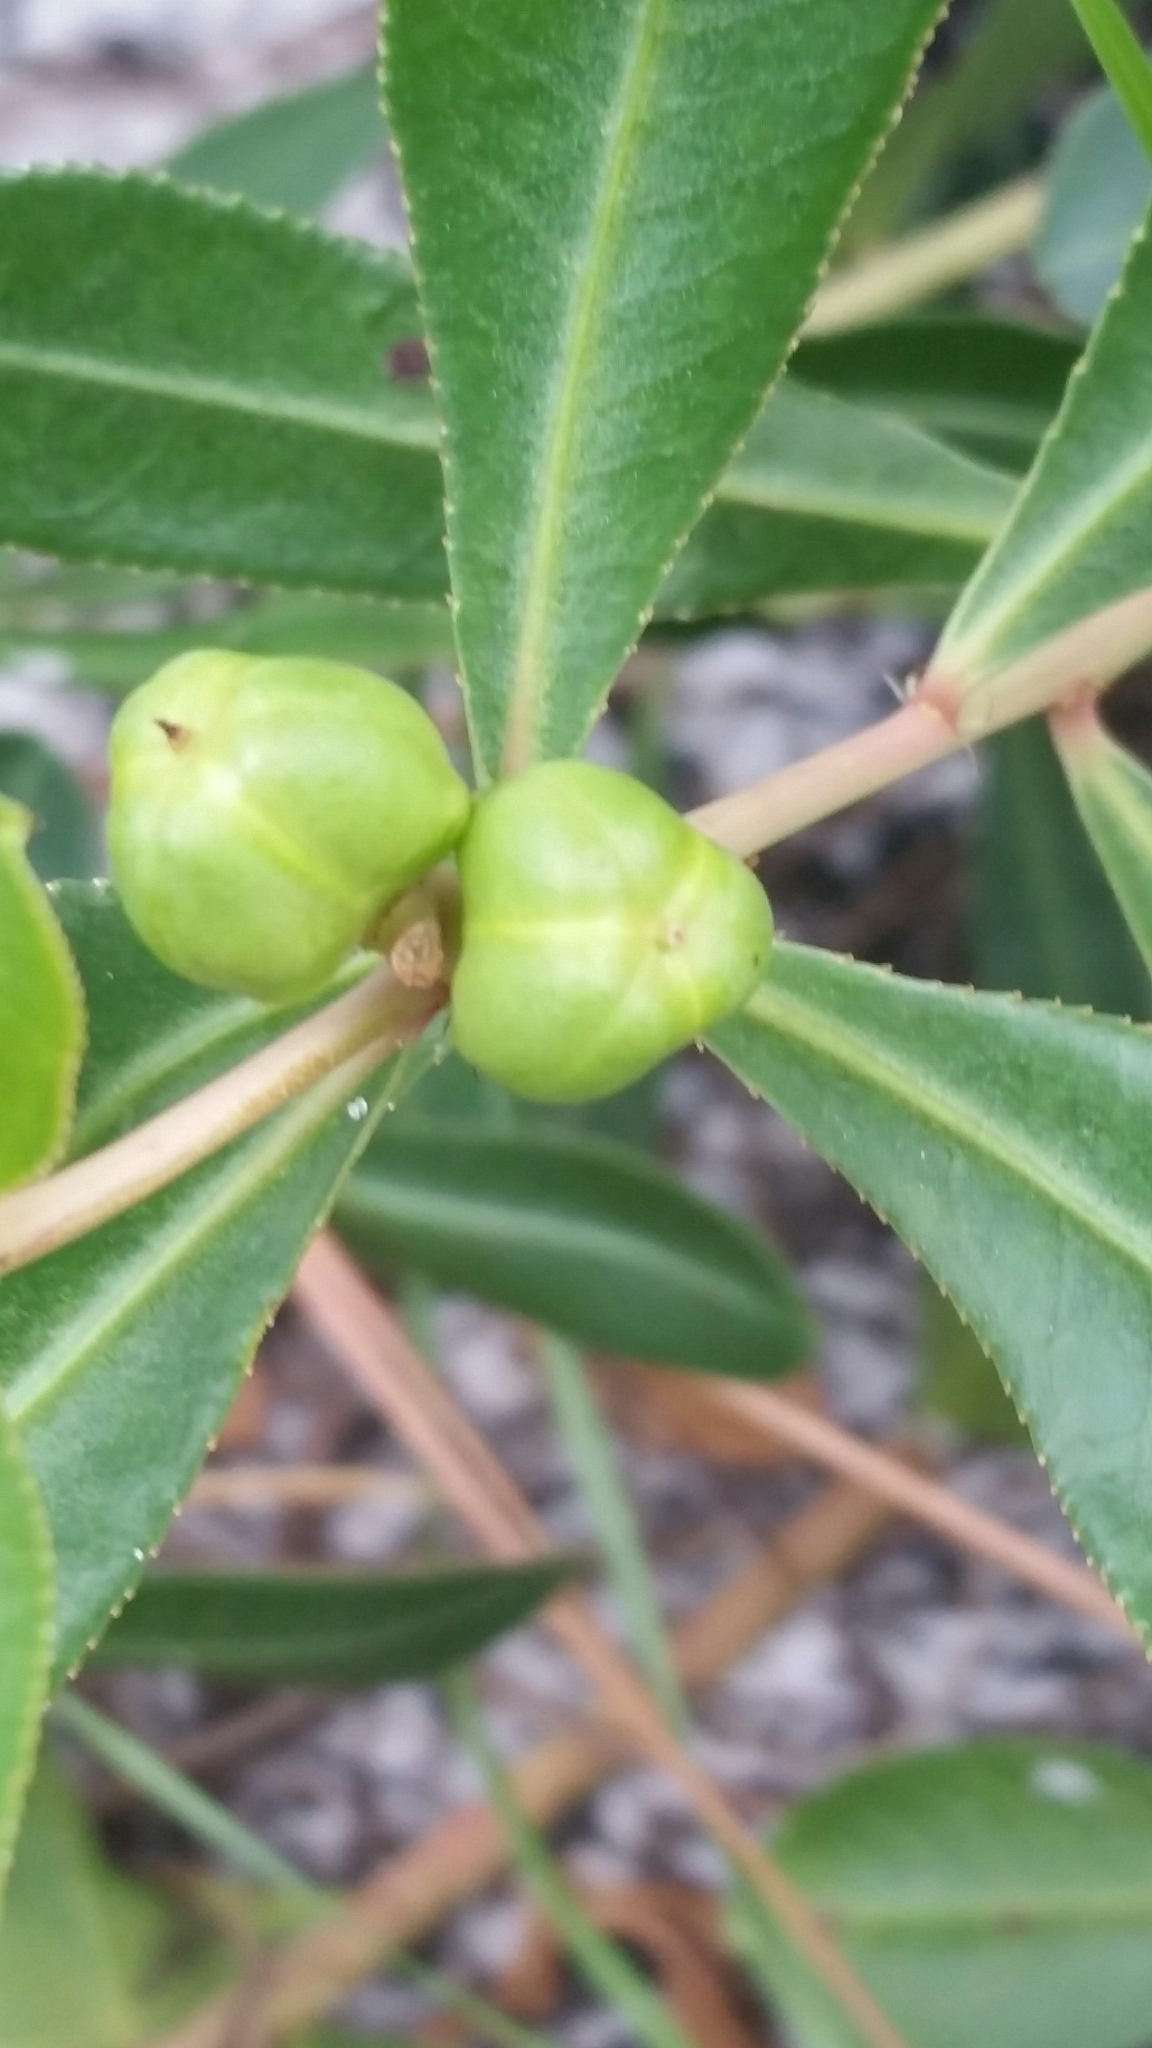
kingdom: Plantae
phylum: Tracheophyta
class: Magnoliopsida
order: Malpighiales
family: Euphorbiaceae
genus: Stillingia
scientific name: Stillingia sylvatica
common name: Queen's-delight
